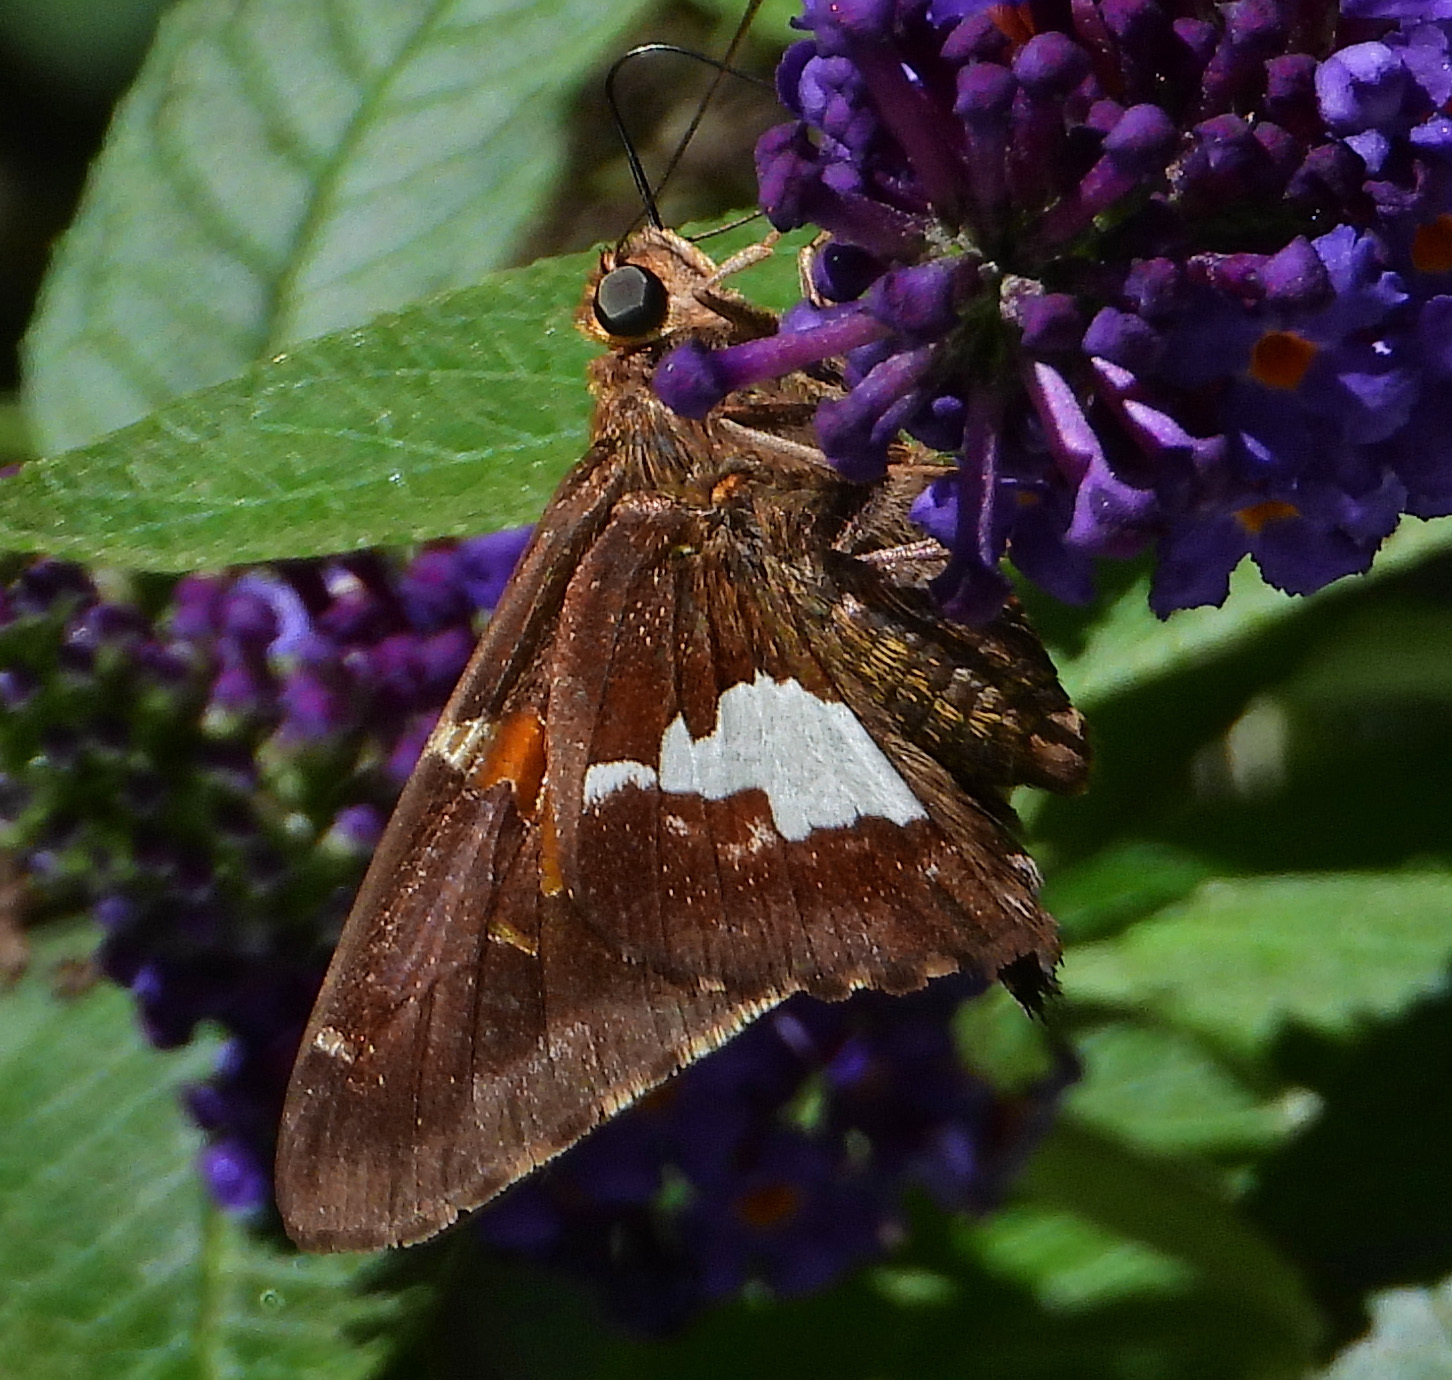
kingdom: Animalia
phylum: Arthropoda
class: Insecta
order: Lepidoptera
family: Hesperiidae
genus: Epargyreus
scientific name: Epargyreus clarus
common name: Silver-spotted skipper
